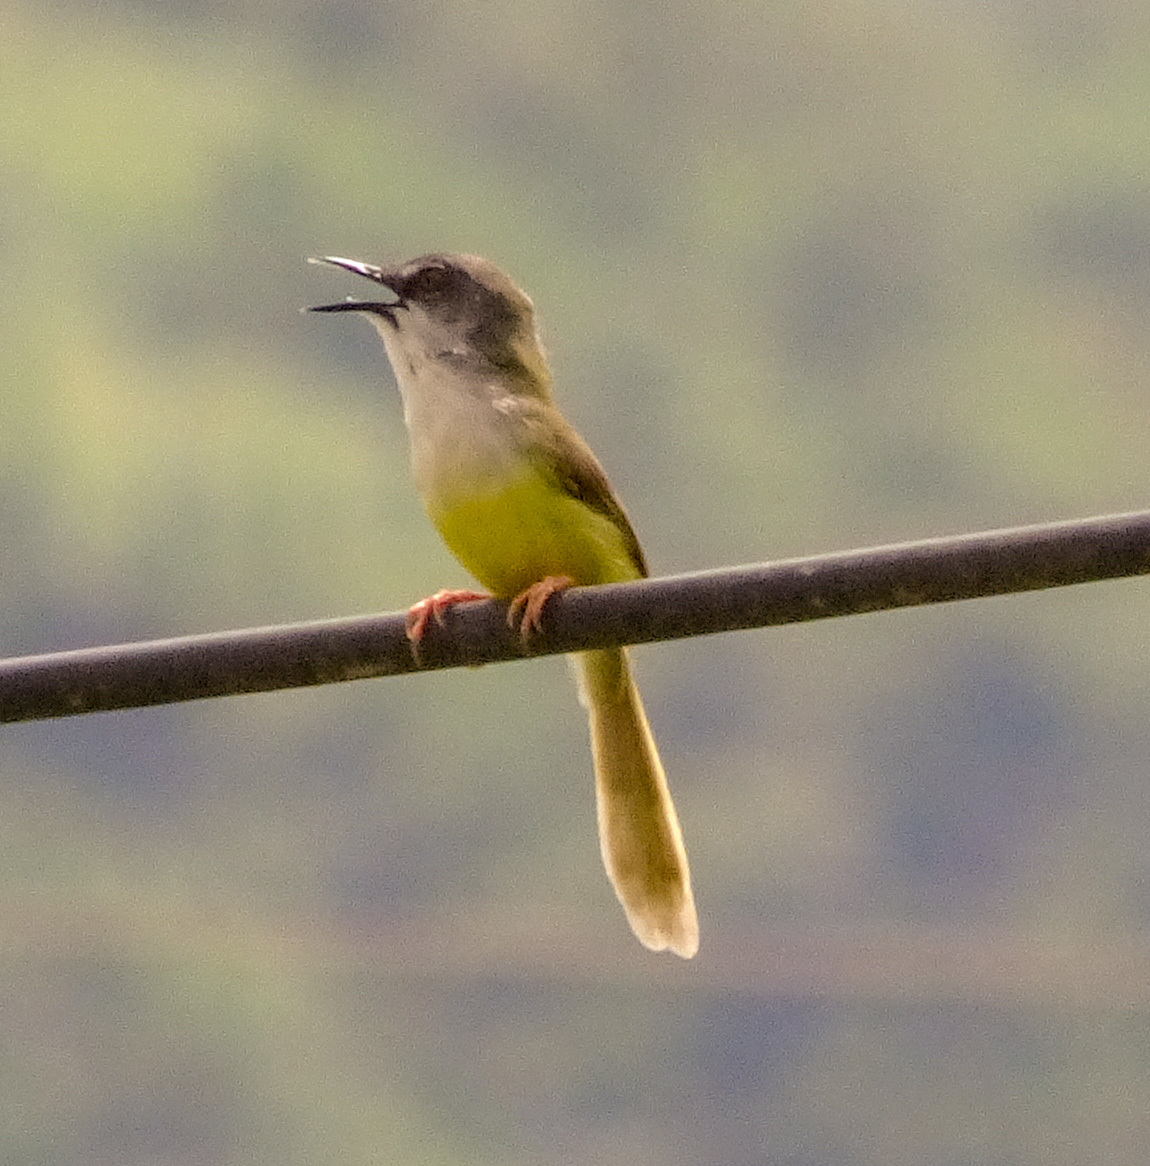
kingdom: Animalia
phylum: Chordata
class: Aves
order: Passeriformes
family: Cisticolidae
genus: Prinia
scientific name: Prinia flaviventris
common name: Yellow-bellied prinia
